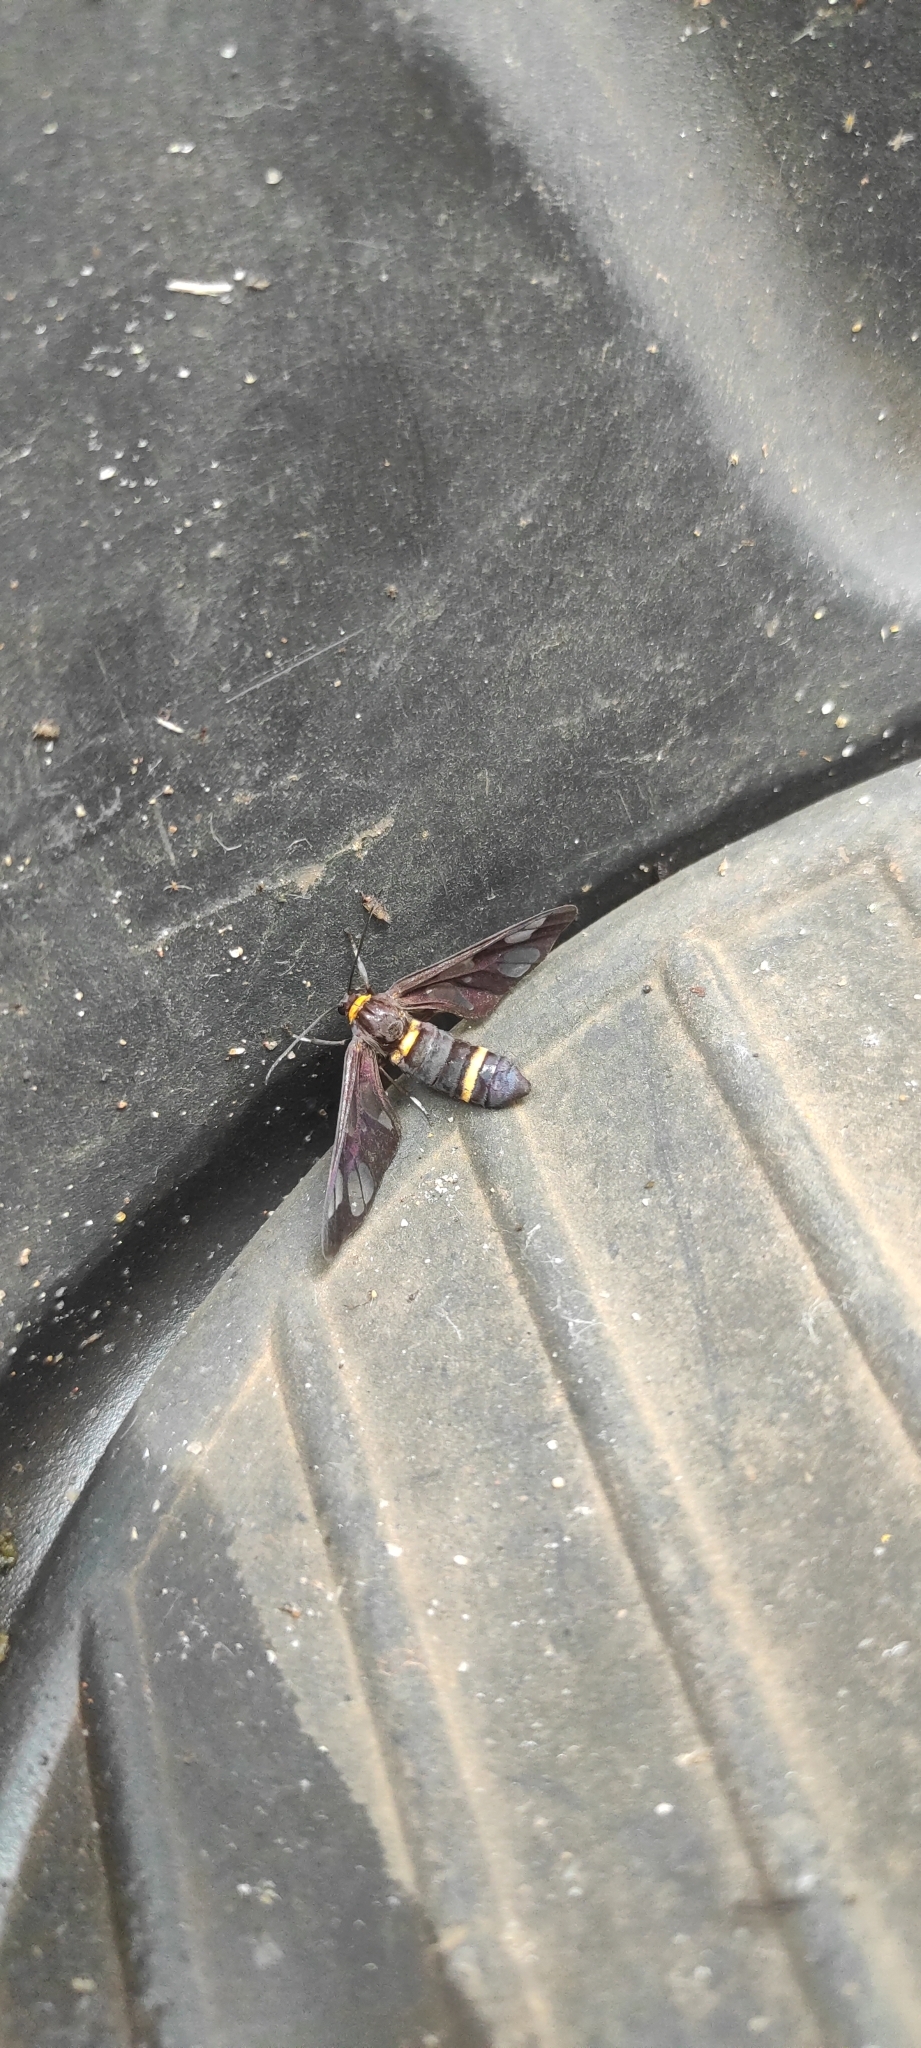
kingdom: Animalia
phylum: Arthropoda
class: Insecta
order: Lepidoptera
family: Erebidae
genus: Syntomoides
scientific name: Syntomoides imaon
